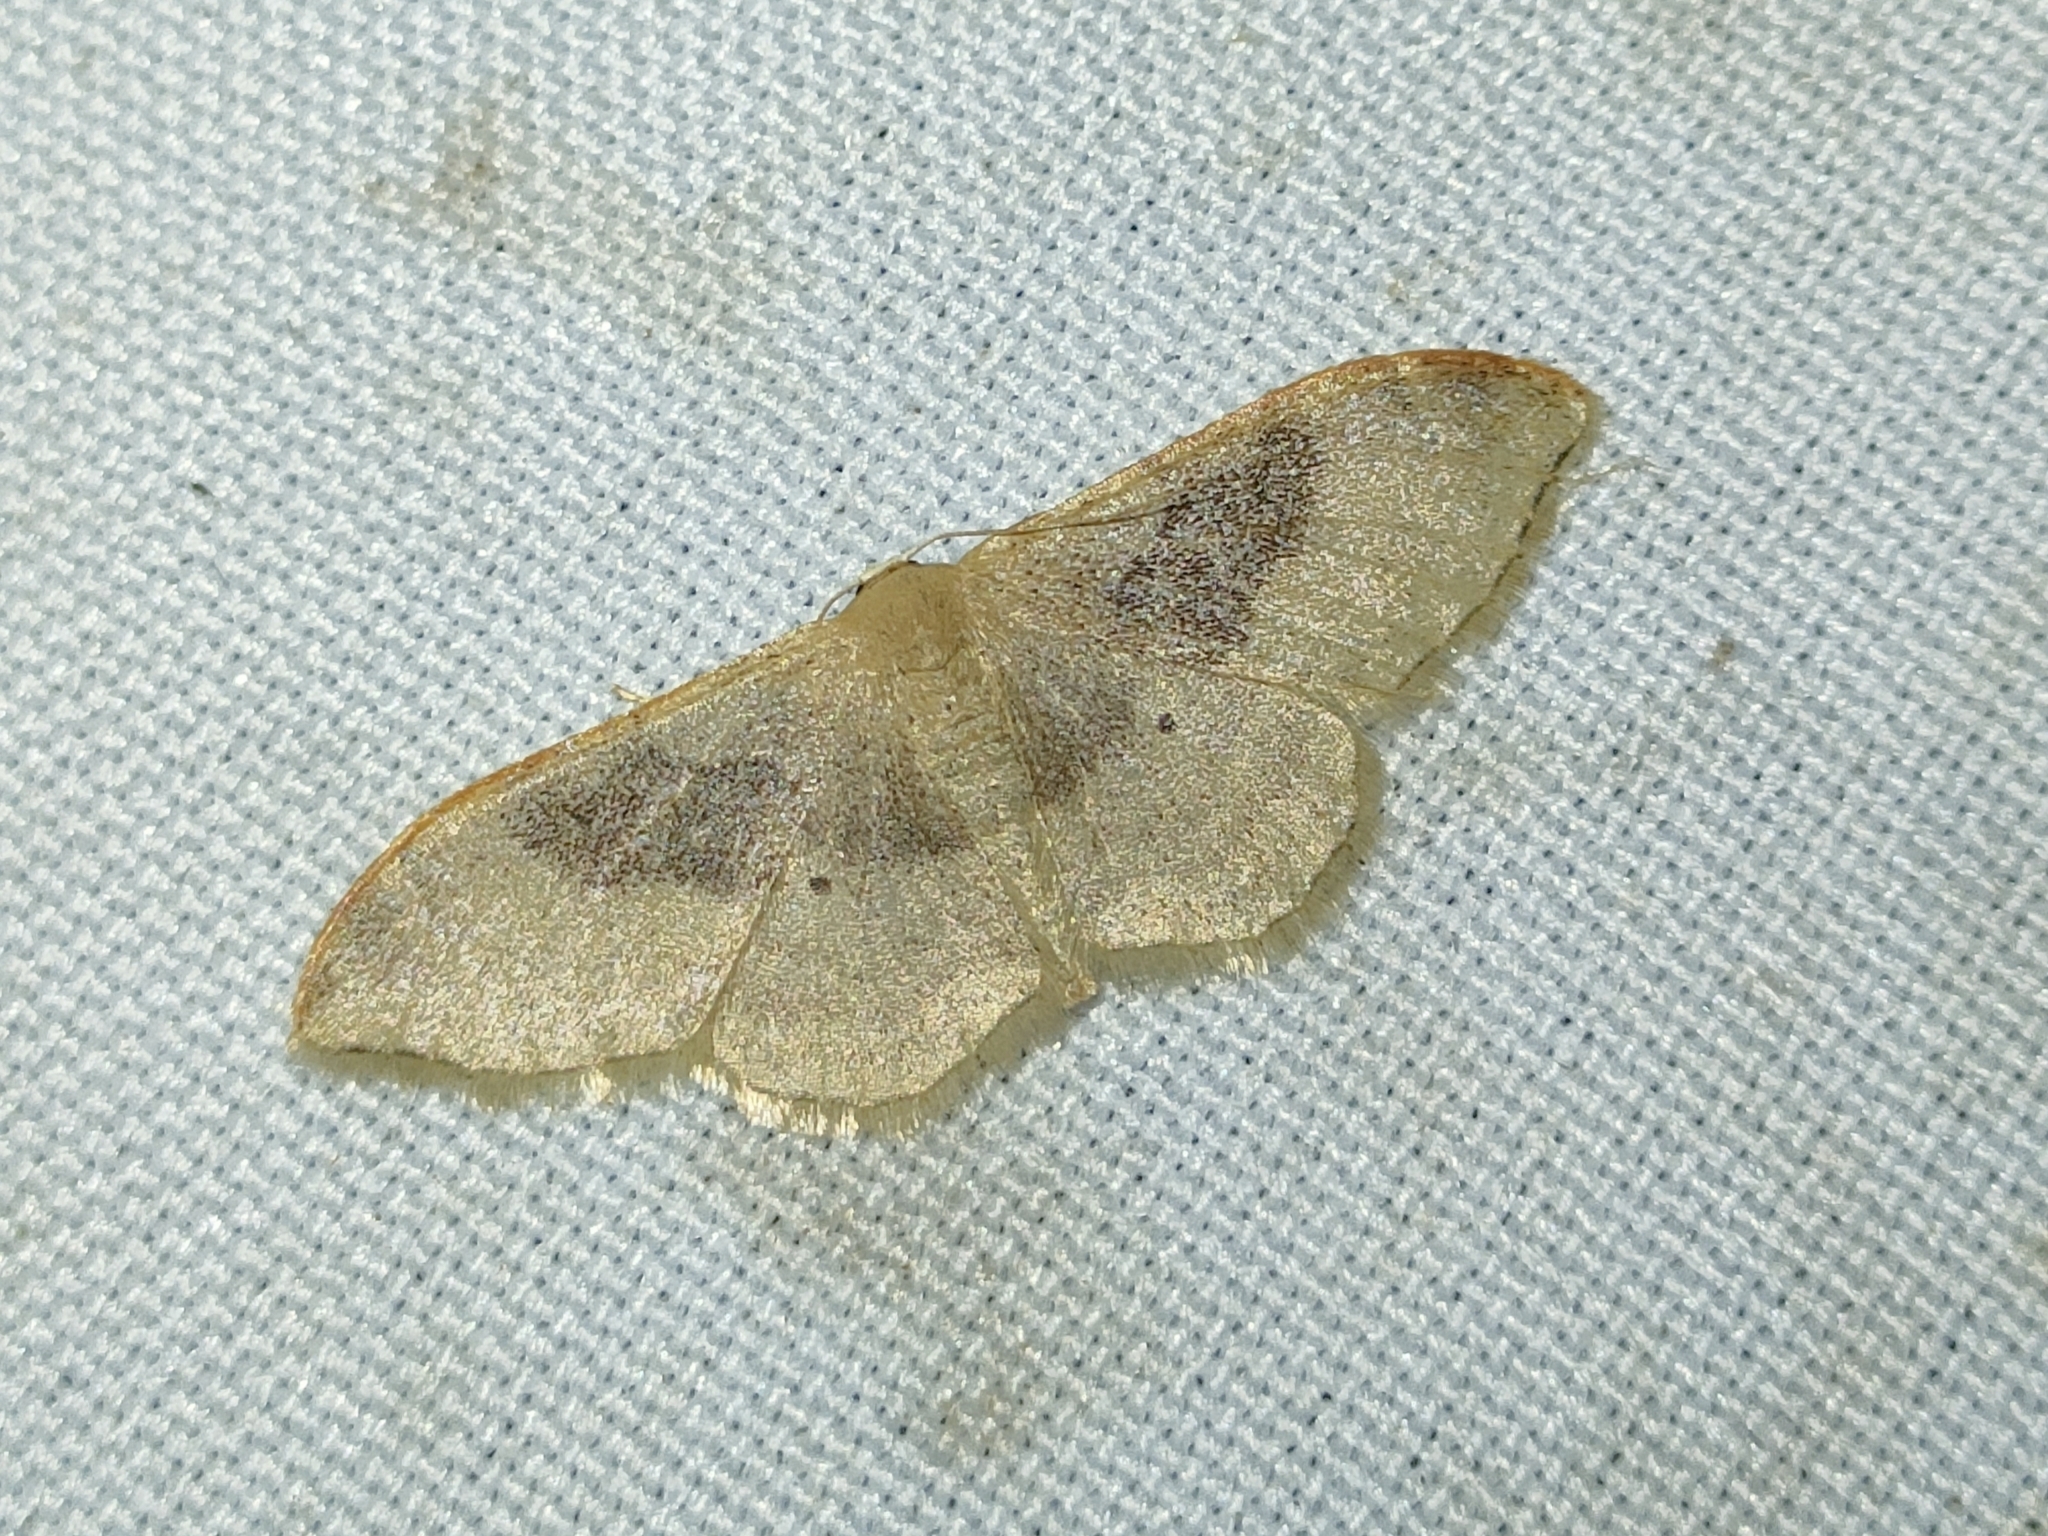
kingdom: Animalia
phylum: Arthropoda
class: Insecta
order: Lepidoptera
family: Geometridae
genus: Idaea
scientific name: Idaea degeneraria
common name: Portland ribbon wave
